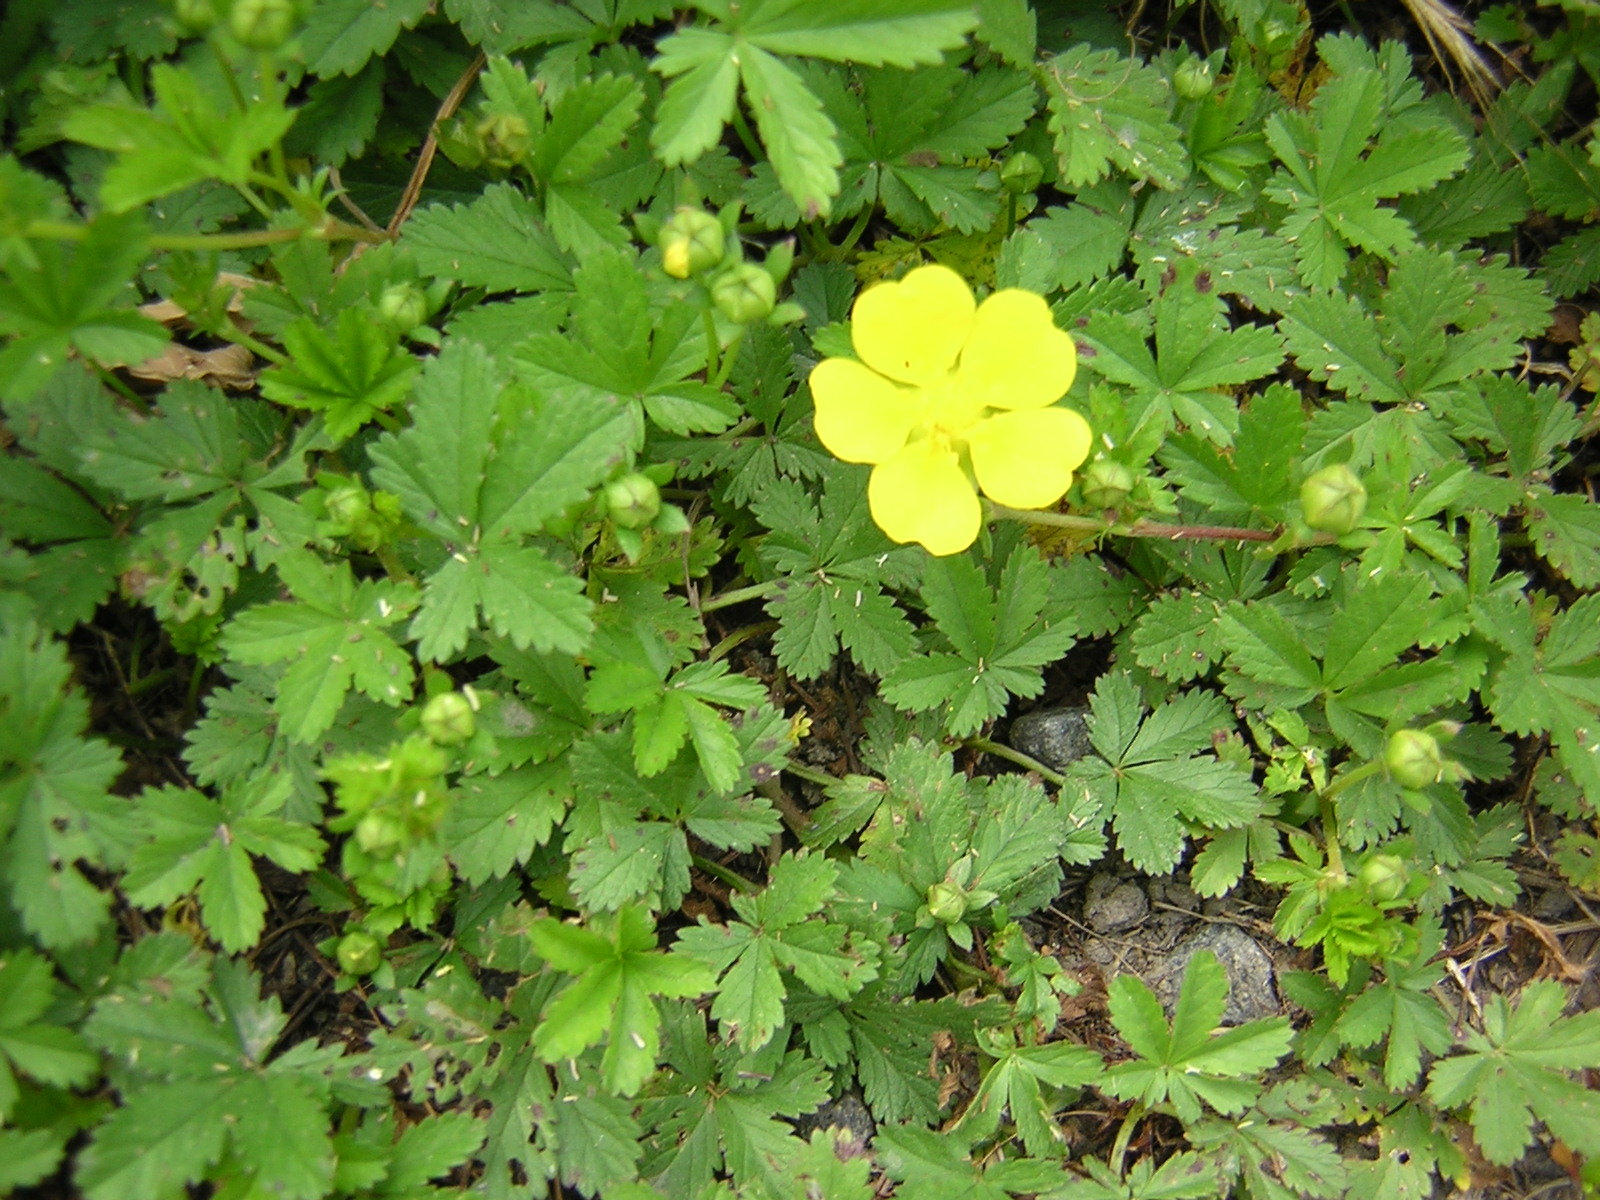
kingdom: Plantae
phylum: Tracheophyta
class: Magnoliopsida
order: Rosales
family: Rosaceae
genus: Potentilla
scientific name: Potentilla reptans
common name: Creeping cinquefoil
